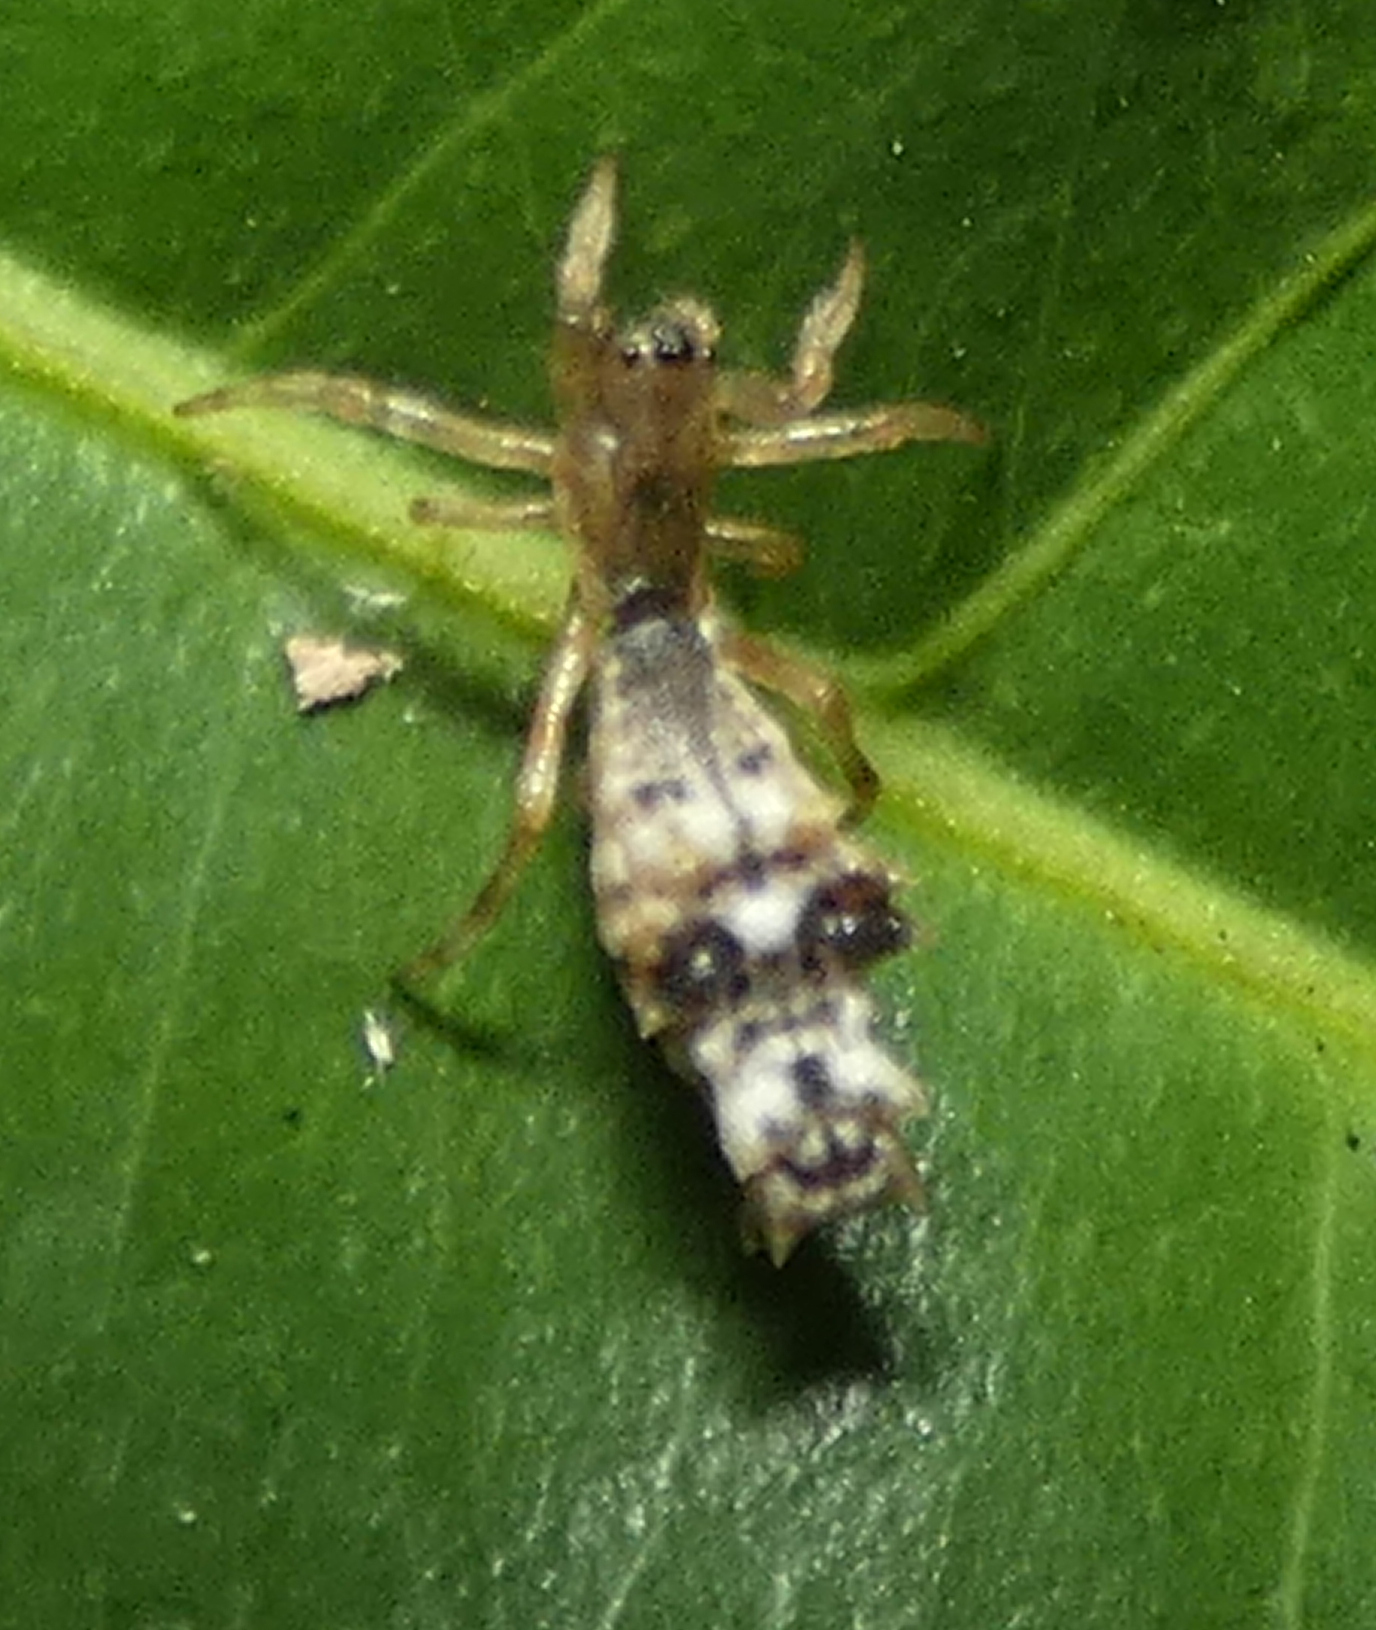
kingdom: Animalia
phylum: Arthropoda
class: Arachnida
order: Araneae
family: Araneidae
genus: Micrathena
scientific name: Micrathena horrida
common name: Orb weavers
